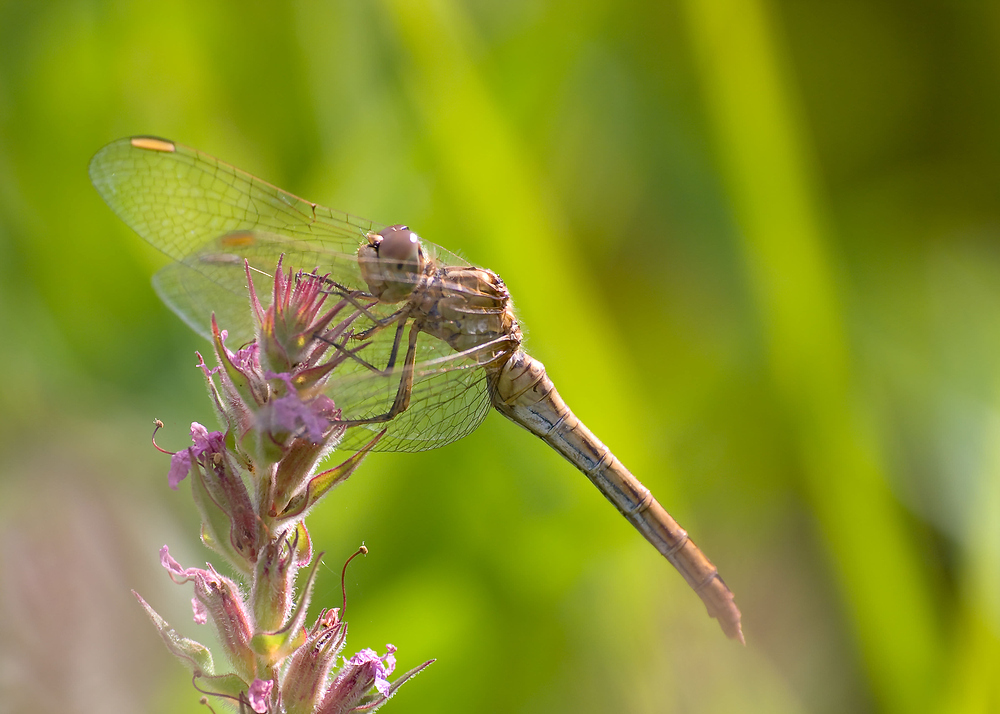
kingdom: Animalia
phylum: Arthropoda
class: Insecta
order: Odonata
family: Libellulidae
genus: Sympetrum
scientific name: Sympetrum meridionale
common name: Southern darter
